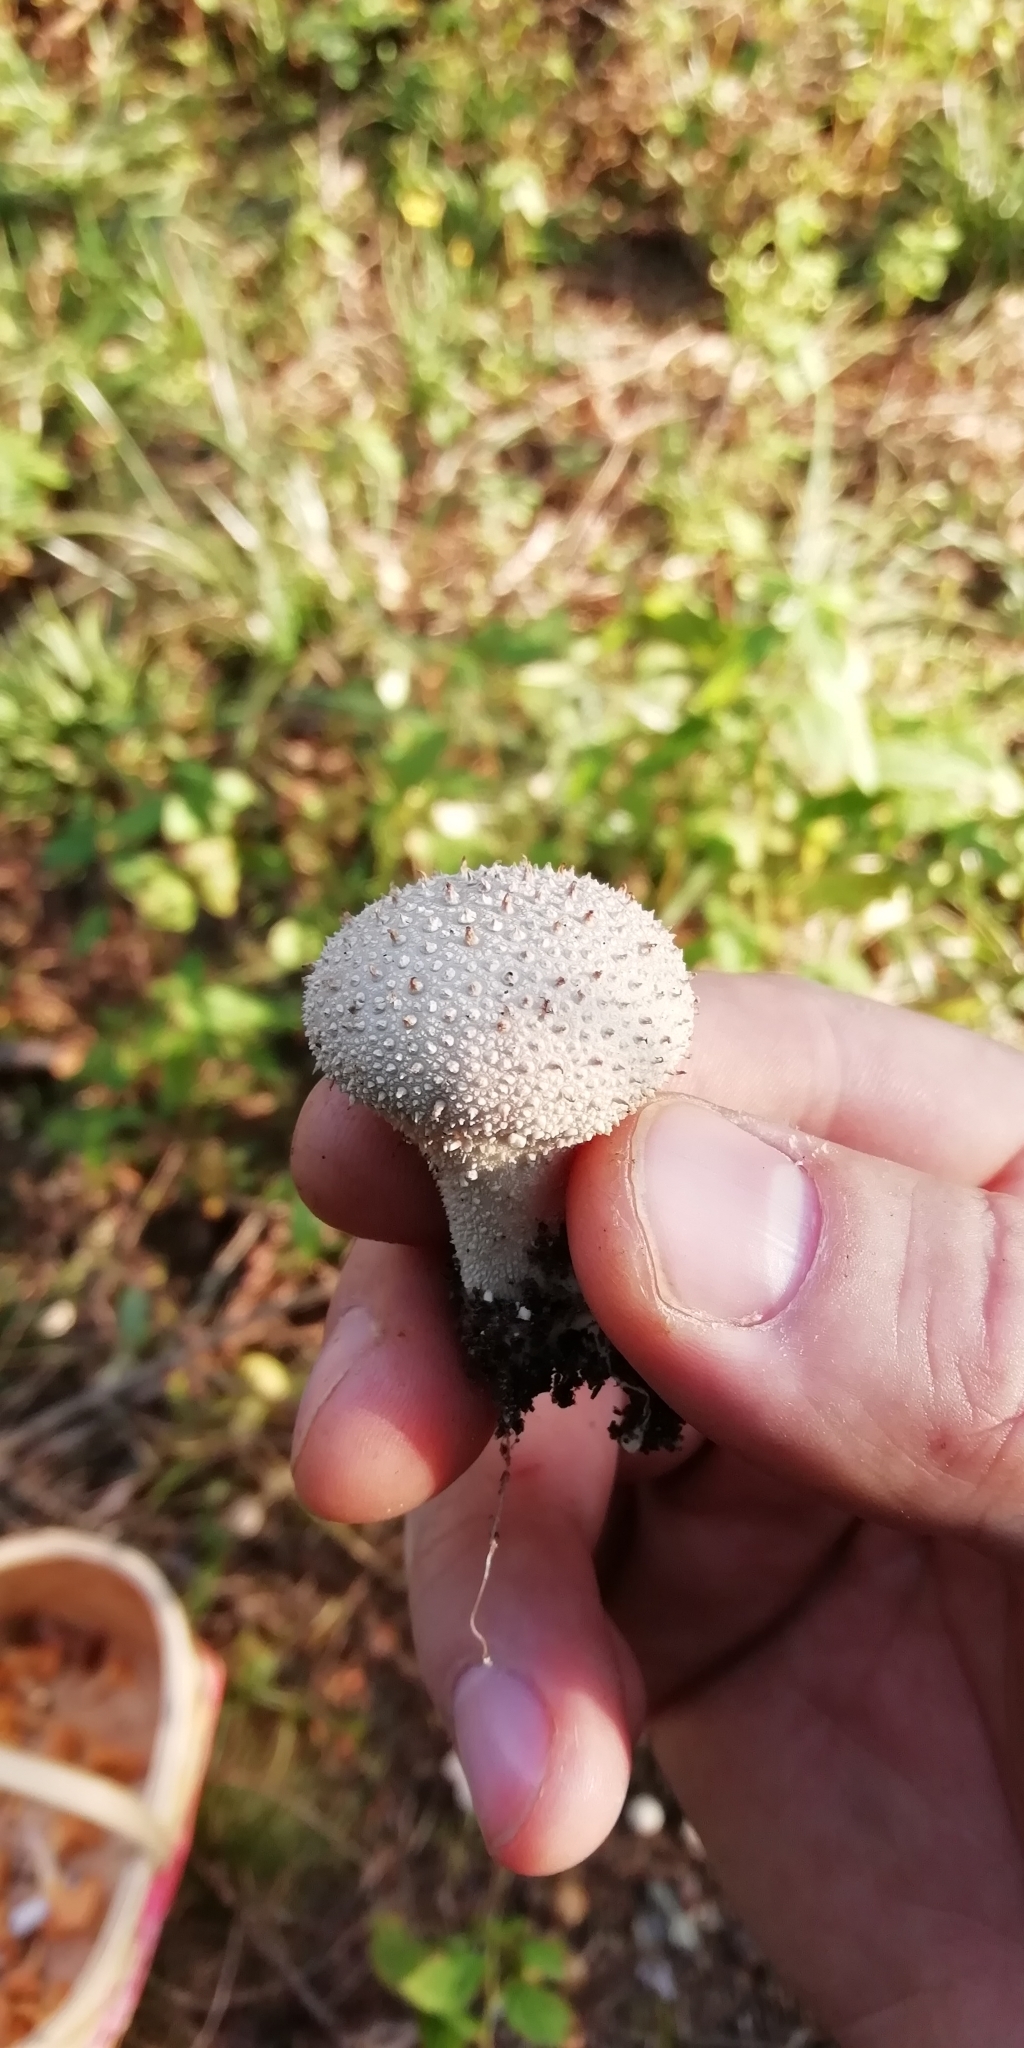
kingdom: Fungi
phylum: Basidiomycota
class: Agaricomycetes
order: Agaricales
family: Lycoperdaceae
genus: Lycoperdon
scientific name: Lycoperdon perlatum
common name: Common puffball
